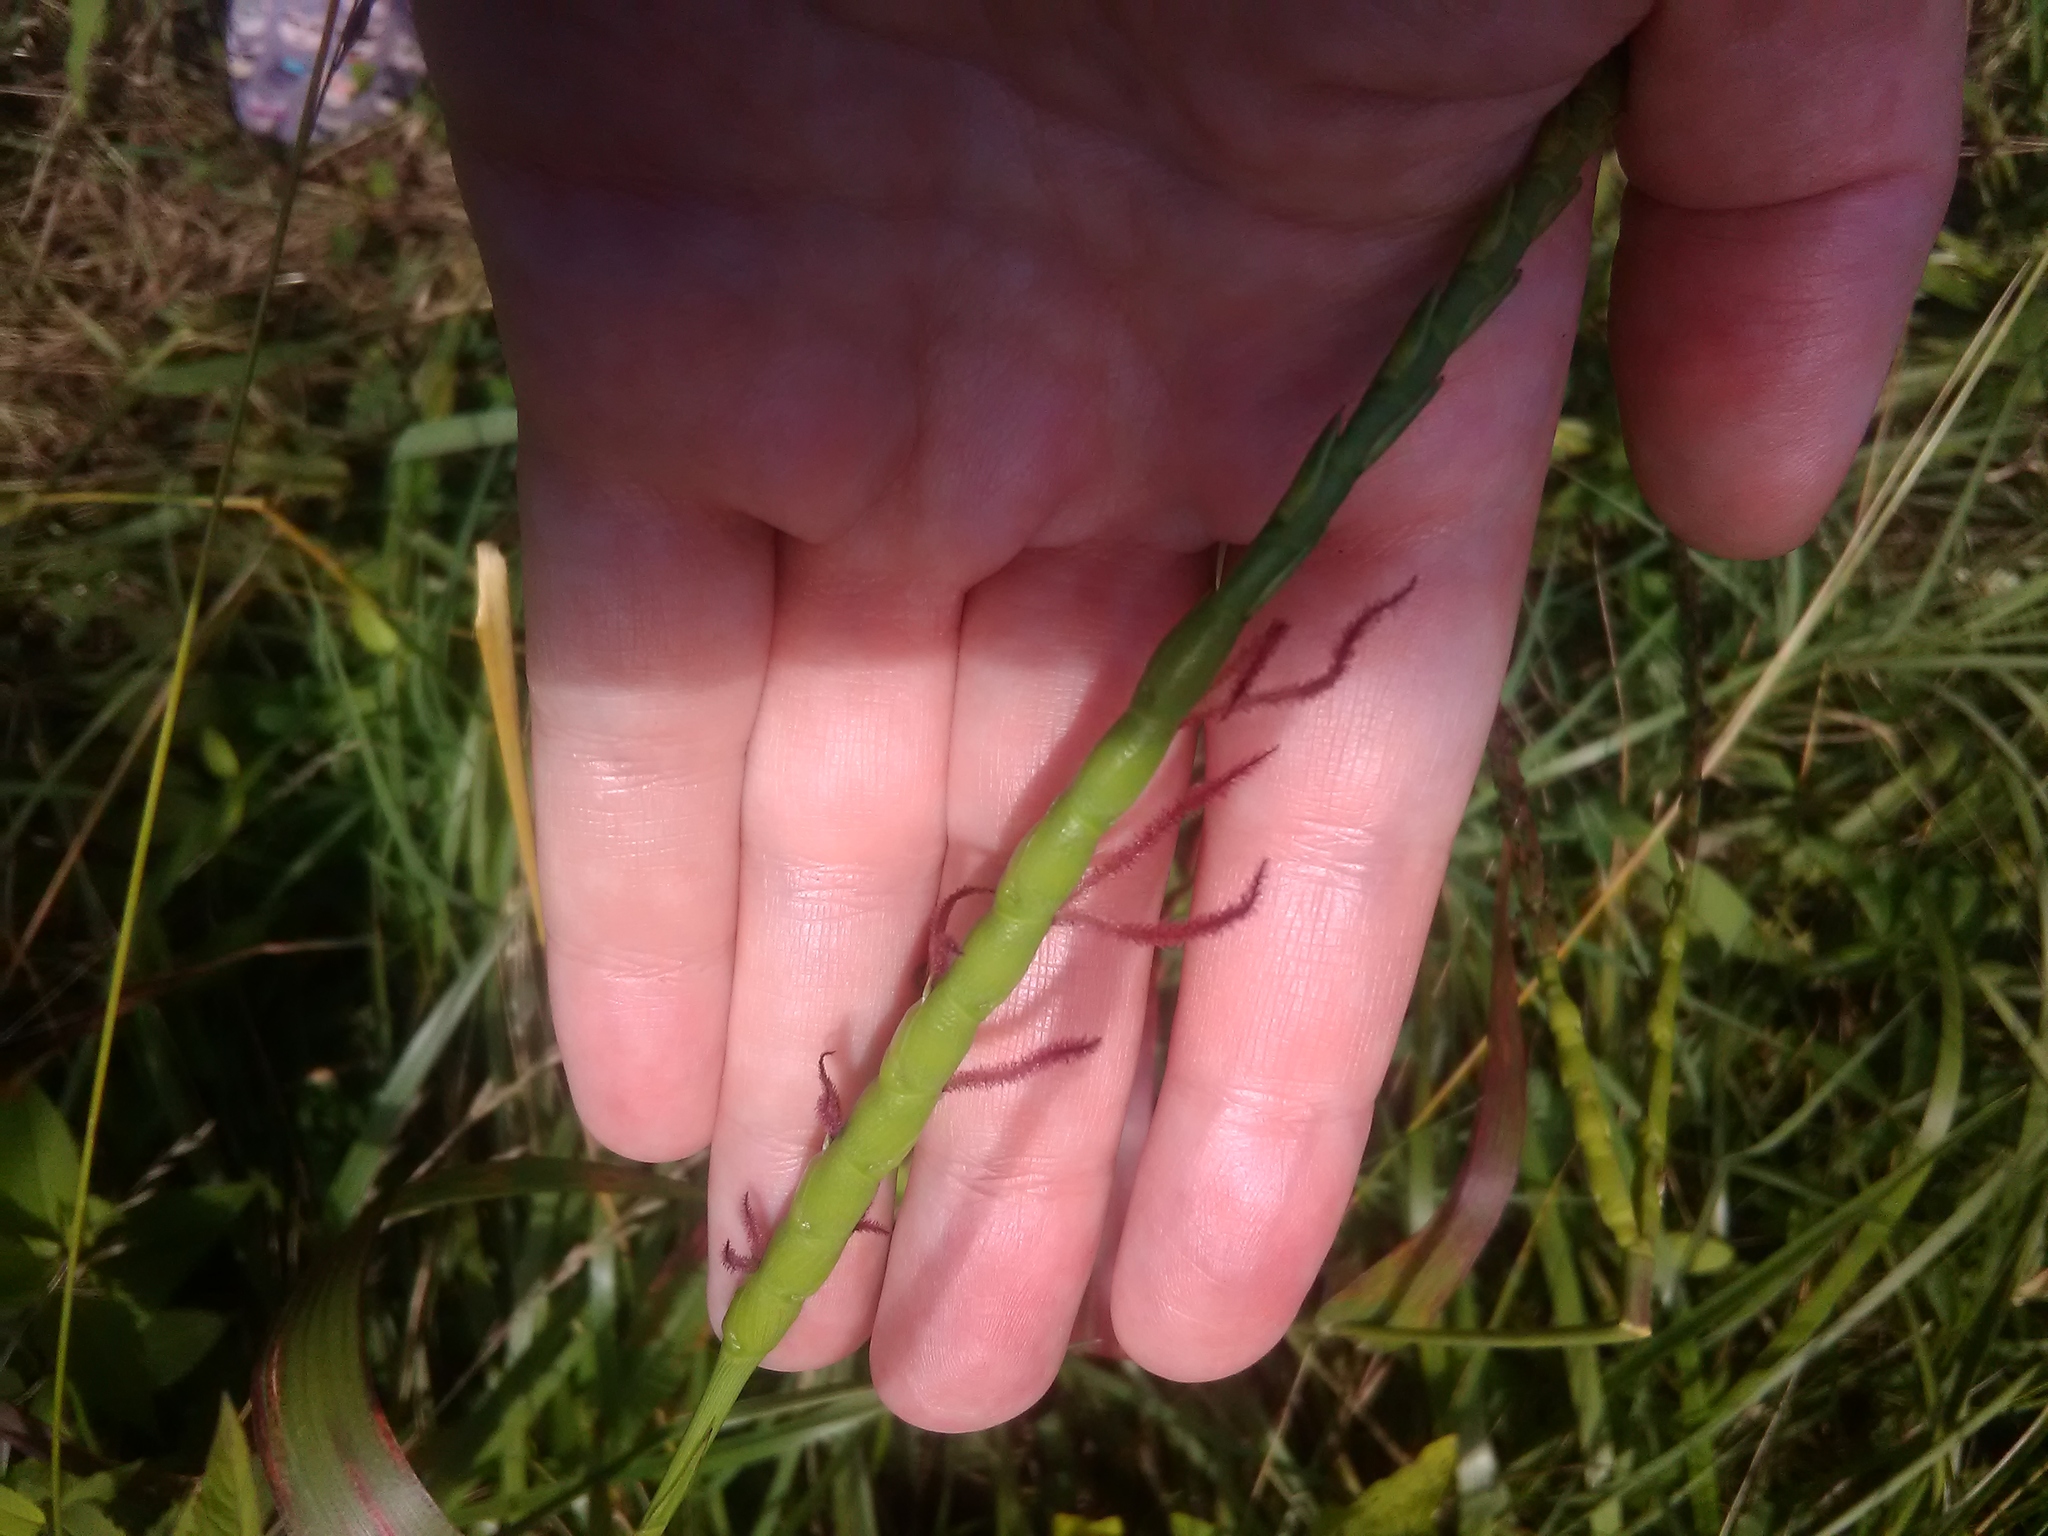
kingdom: Plantae
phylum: Tracheophyta
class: Liliopsida
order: Poales
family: Poaceae
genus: Tripsacum
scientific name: Tripsacum dactyloides
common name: Buffalo-grass
